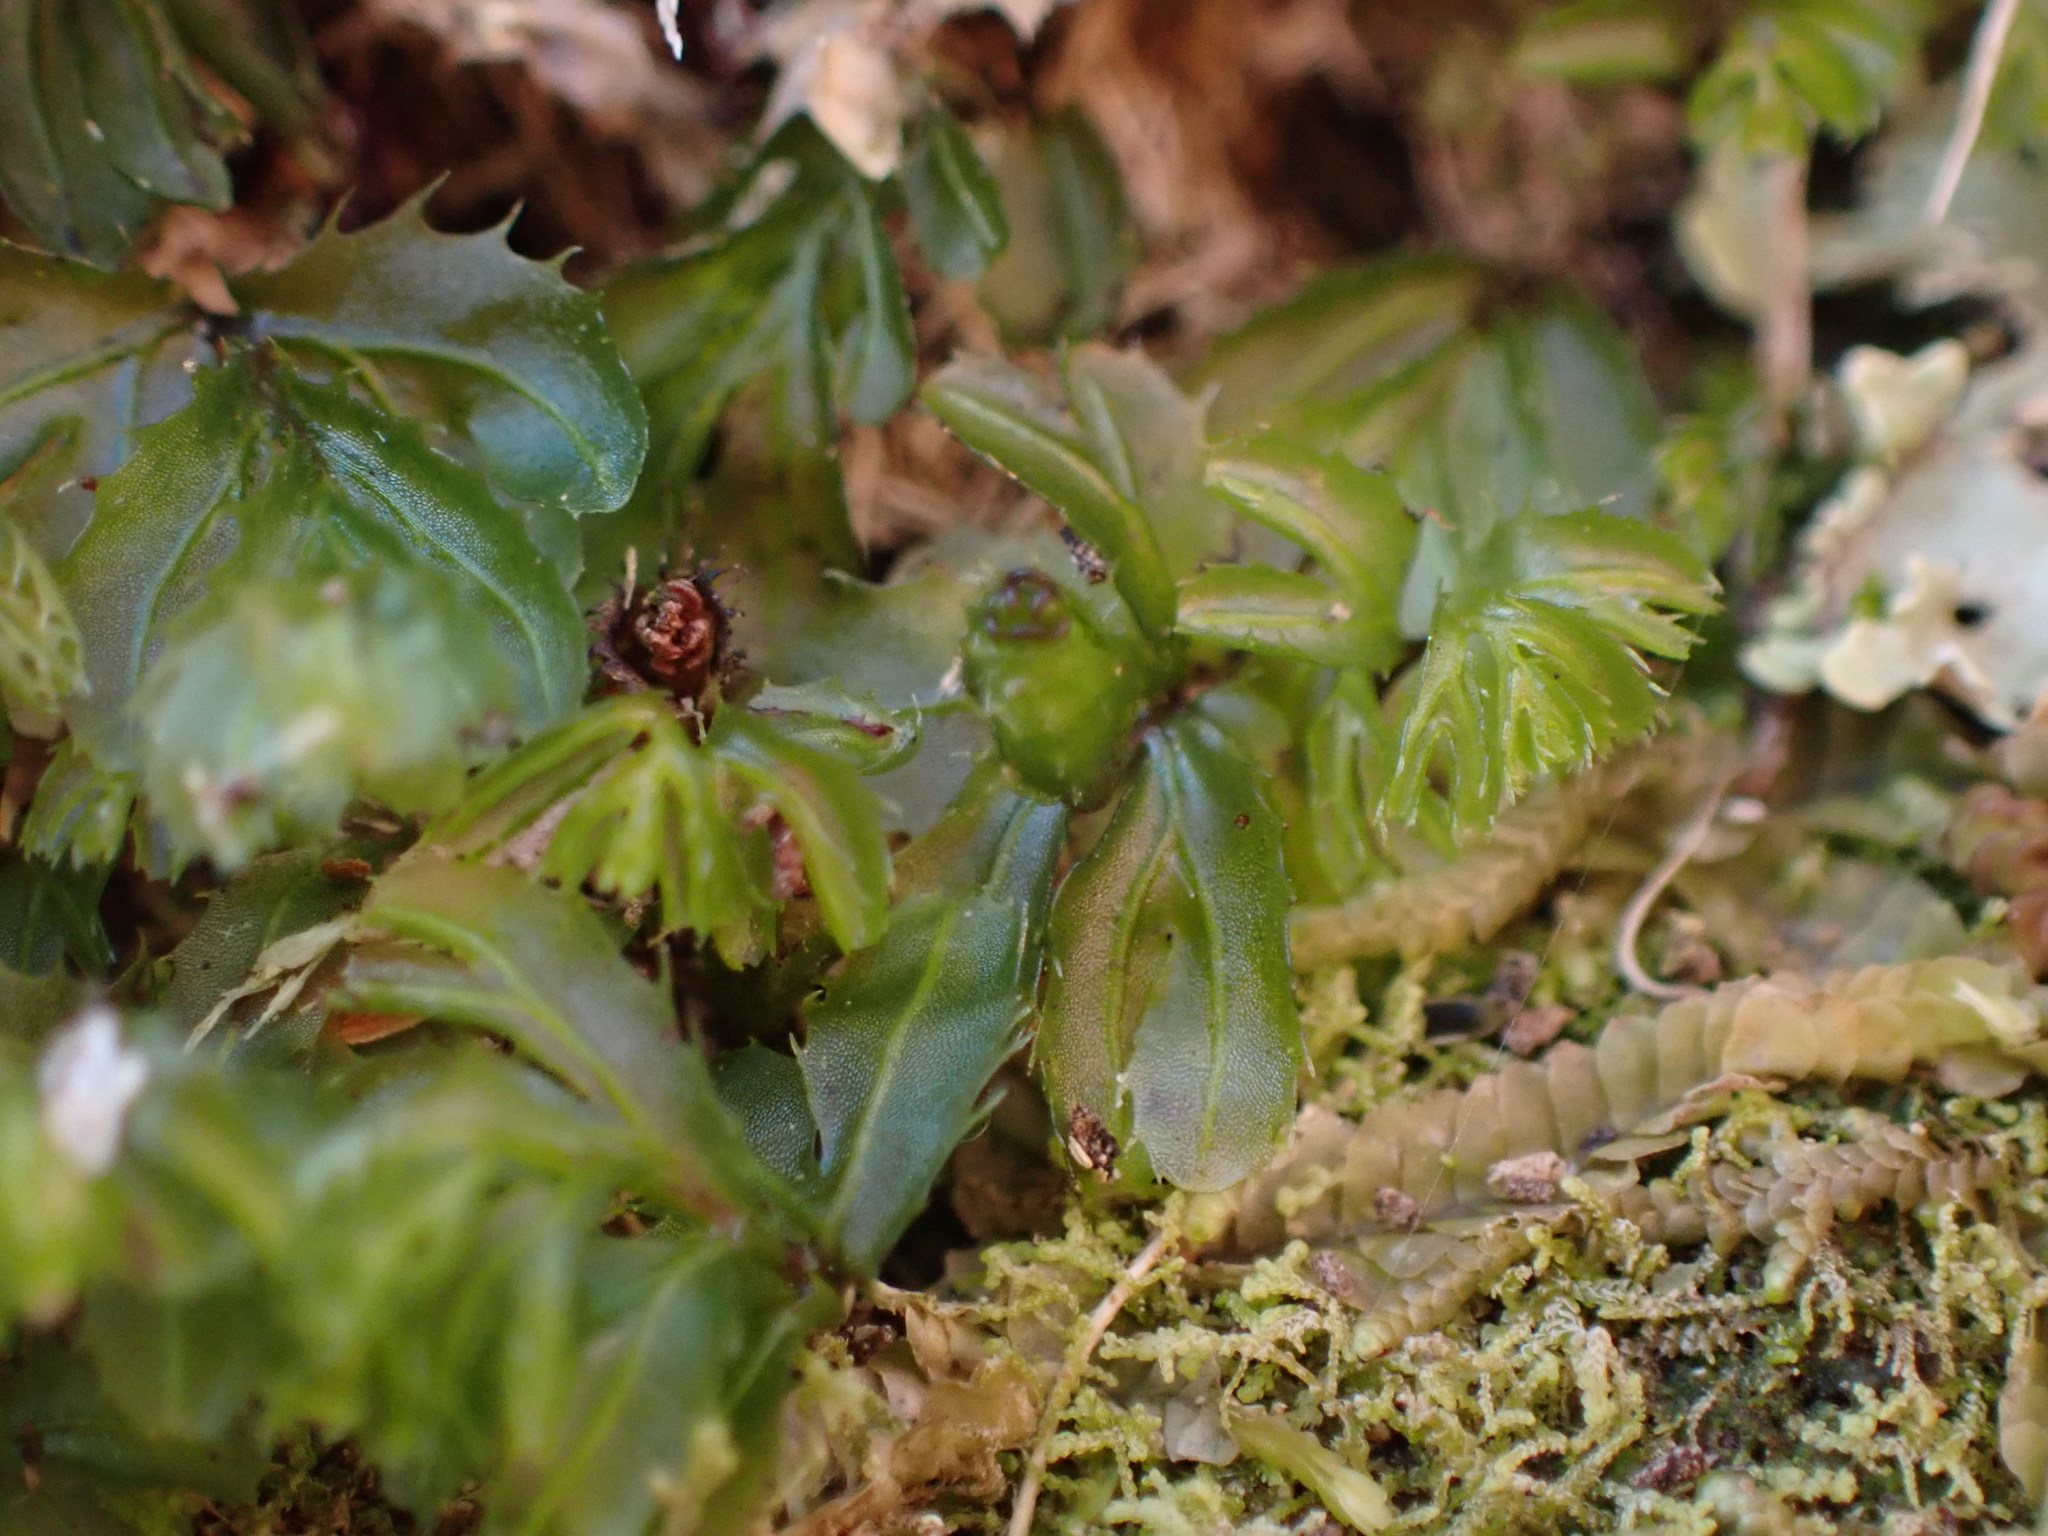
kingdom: Plantae
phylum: Tracheophyta
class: Polypodiopsida
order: Hymenophyllales
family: Hymenophyllaceae
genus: Hymenophyllum
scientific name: Hymenophyllum minimum
